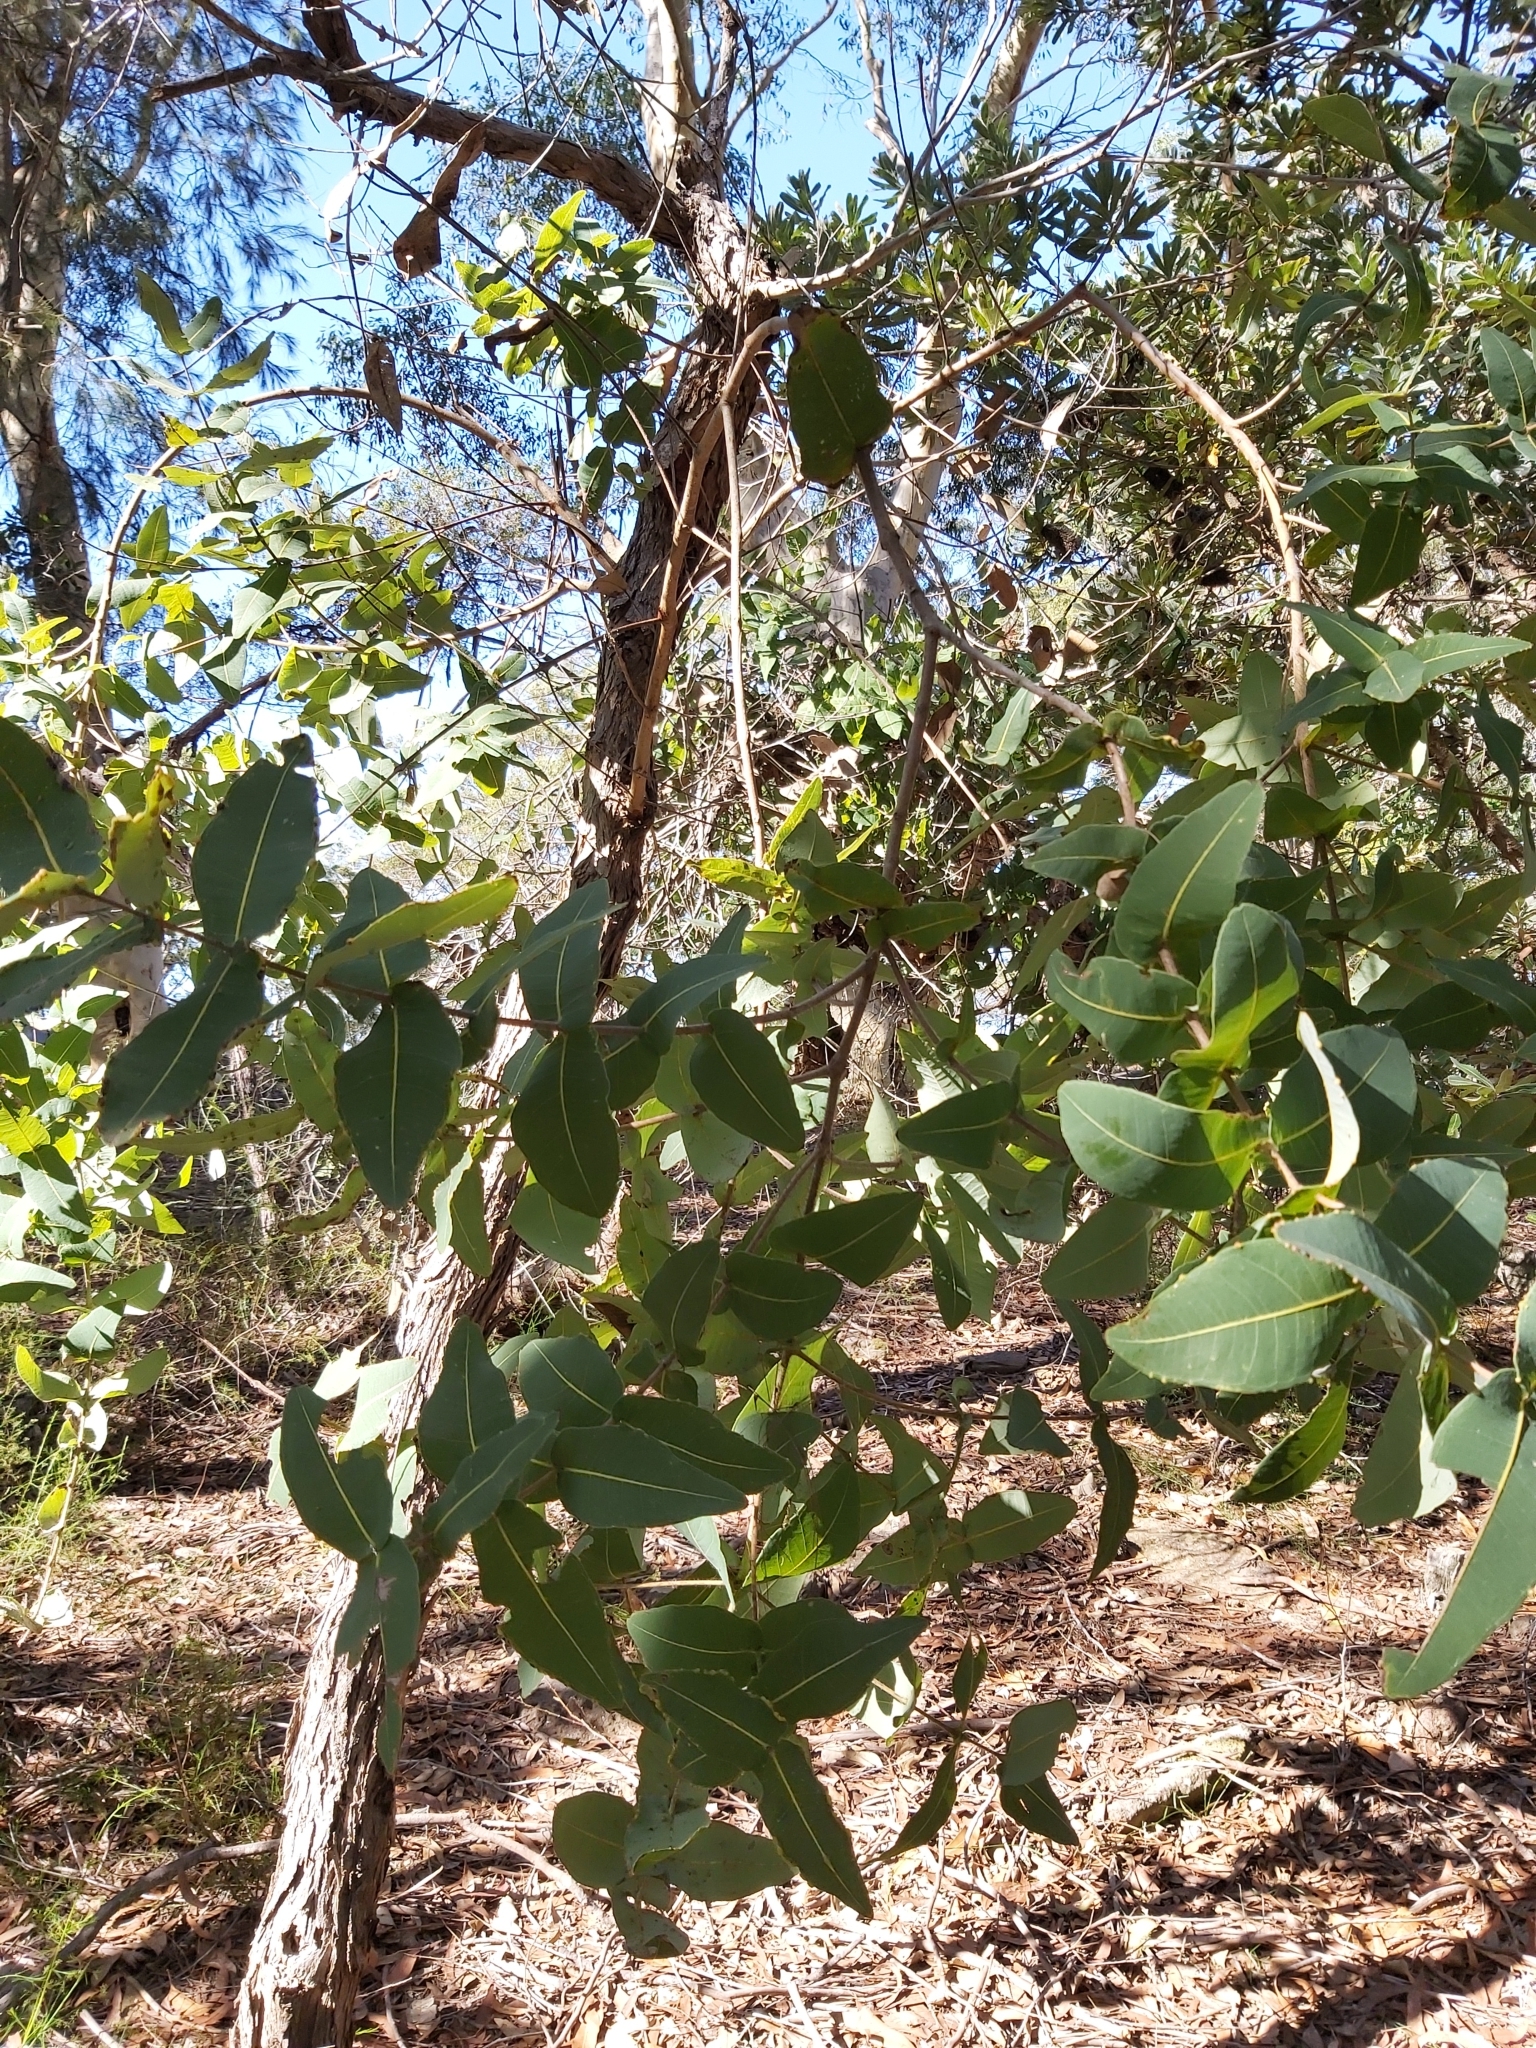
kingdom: Plantae
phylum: Tracheophyta
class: Magnoliopsida
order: Myrtales
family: Myrtaceae
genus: Angophora
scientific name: Angophora hispida
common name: Dwarf-apple
